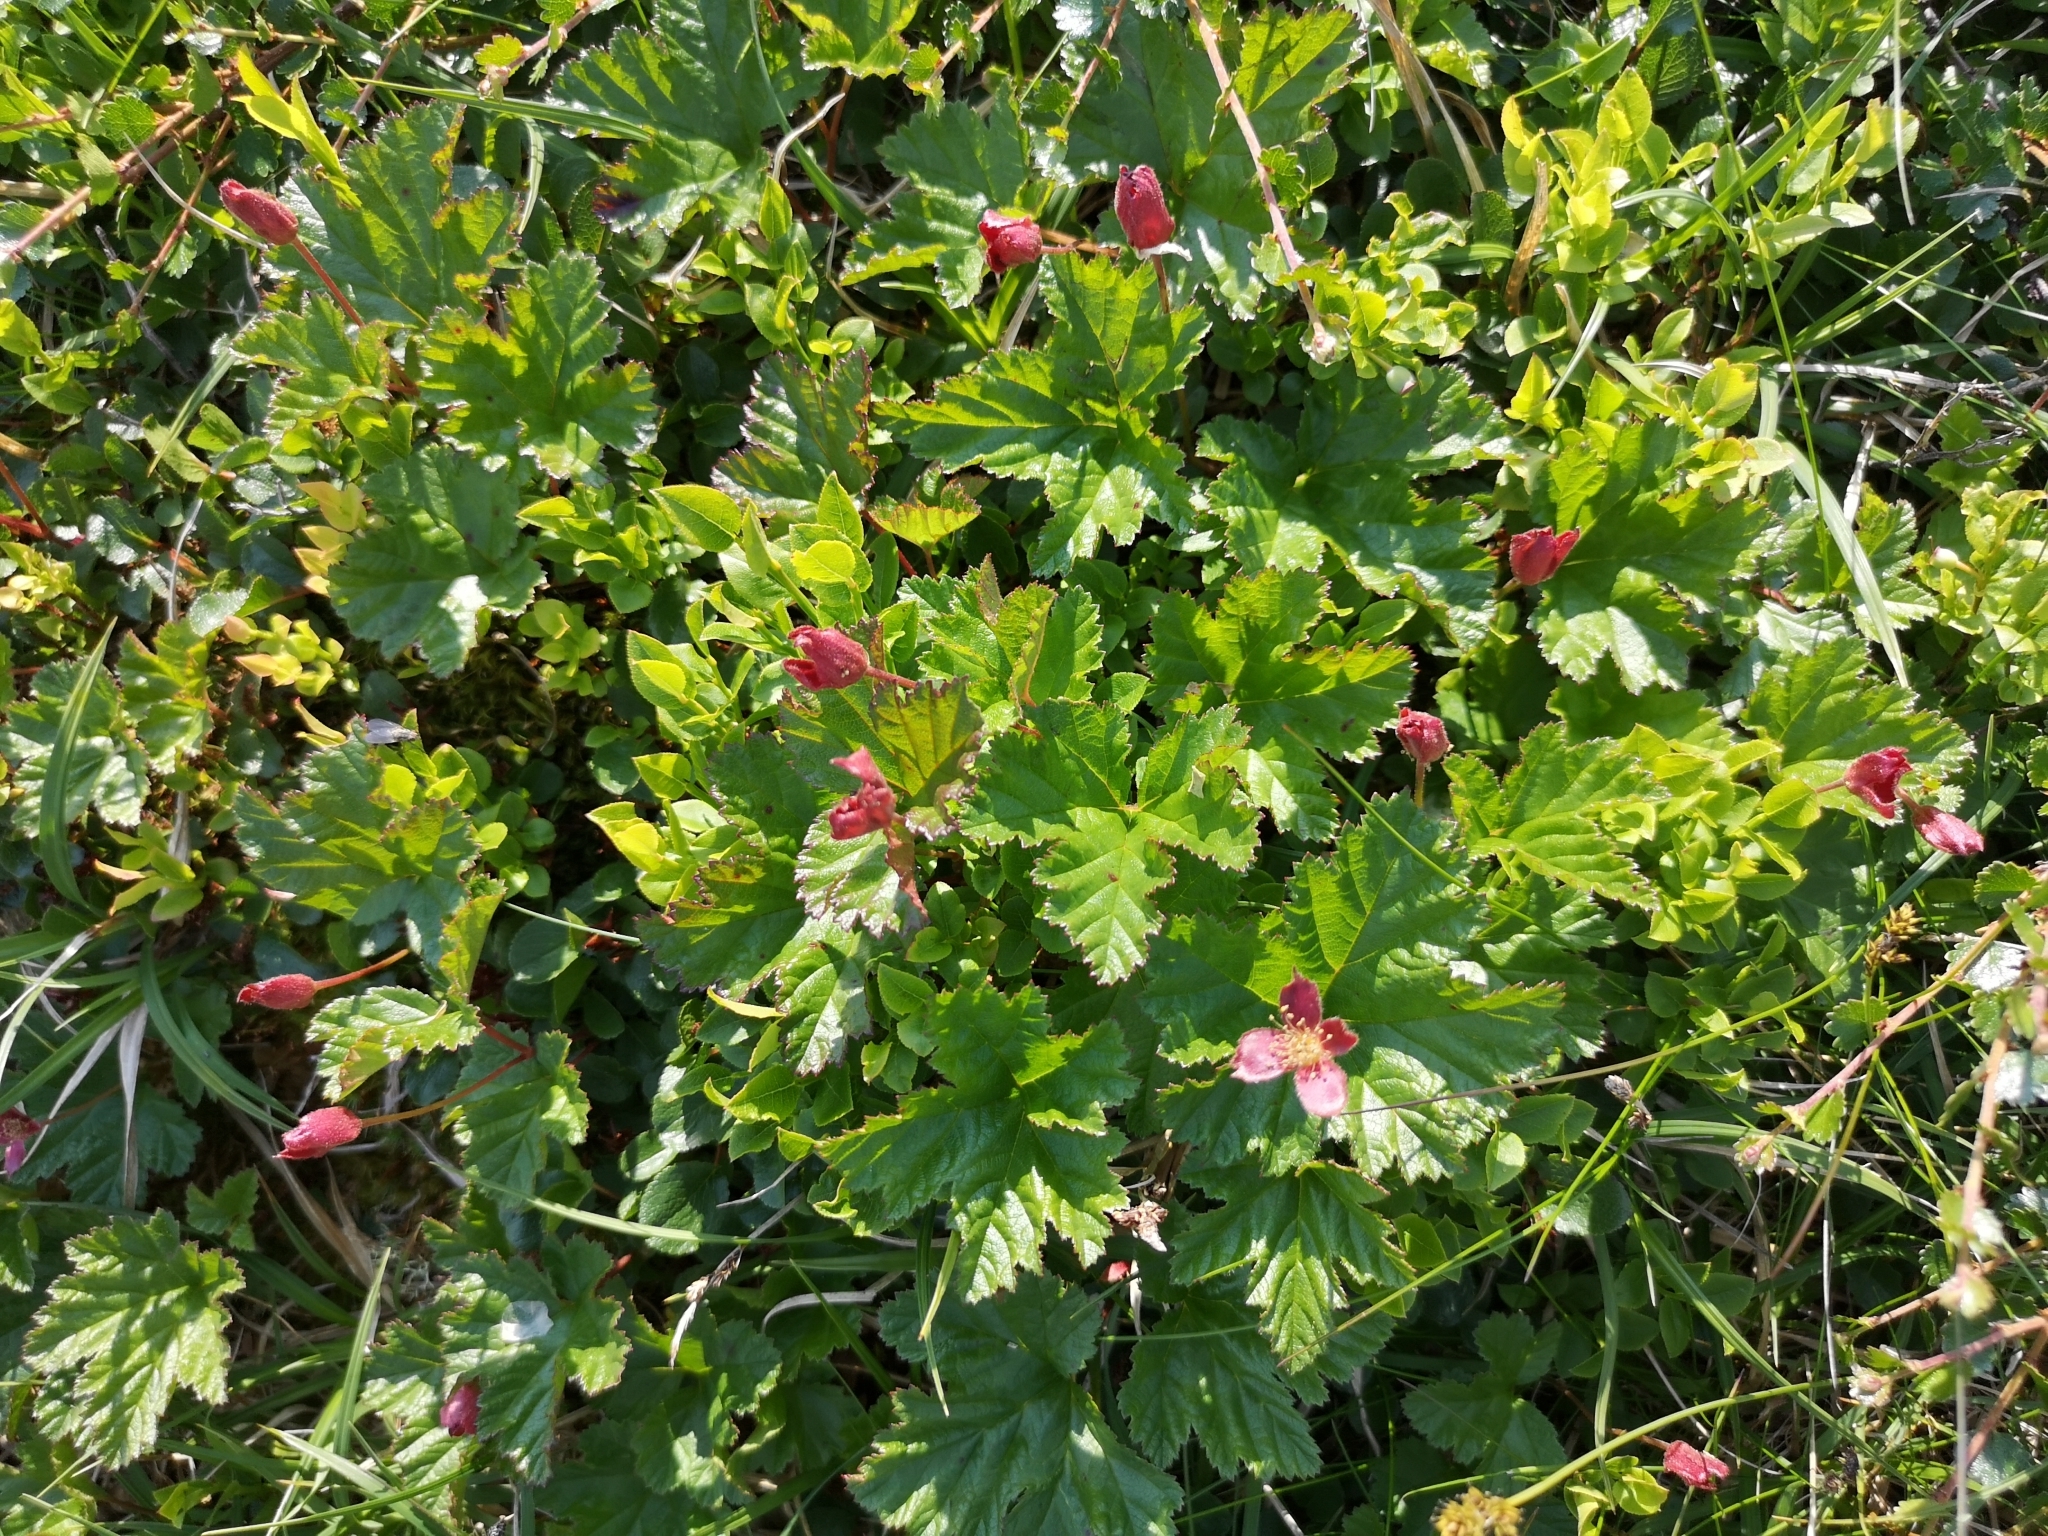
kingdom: Plantae
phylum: Tracheophyta
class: Magnoliopsida
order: Rosales
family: Rosaceae
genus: Rubus
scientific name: Rubus chamaemorus
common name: Cloudberry
